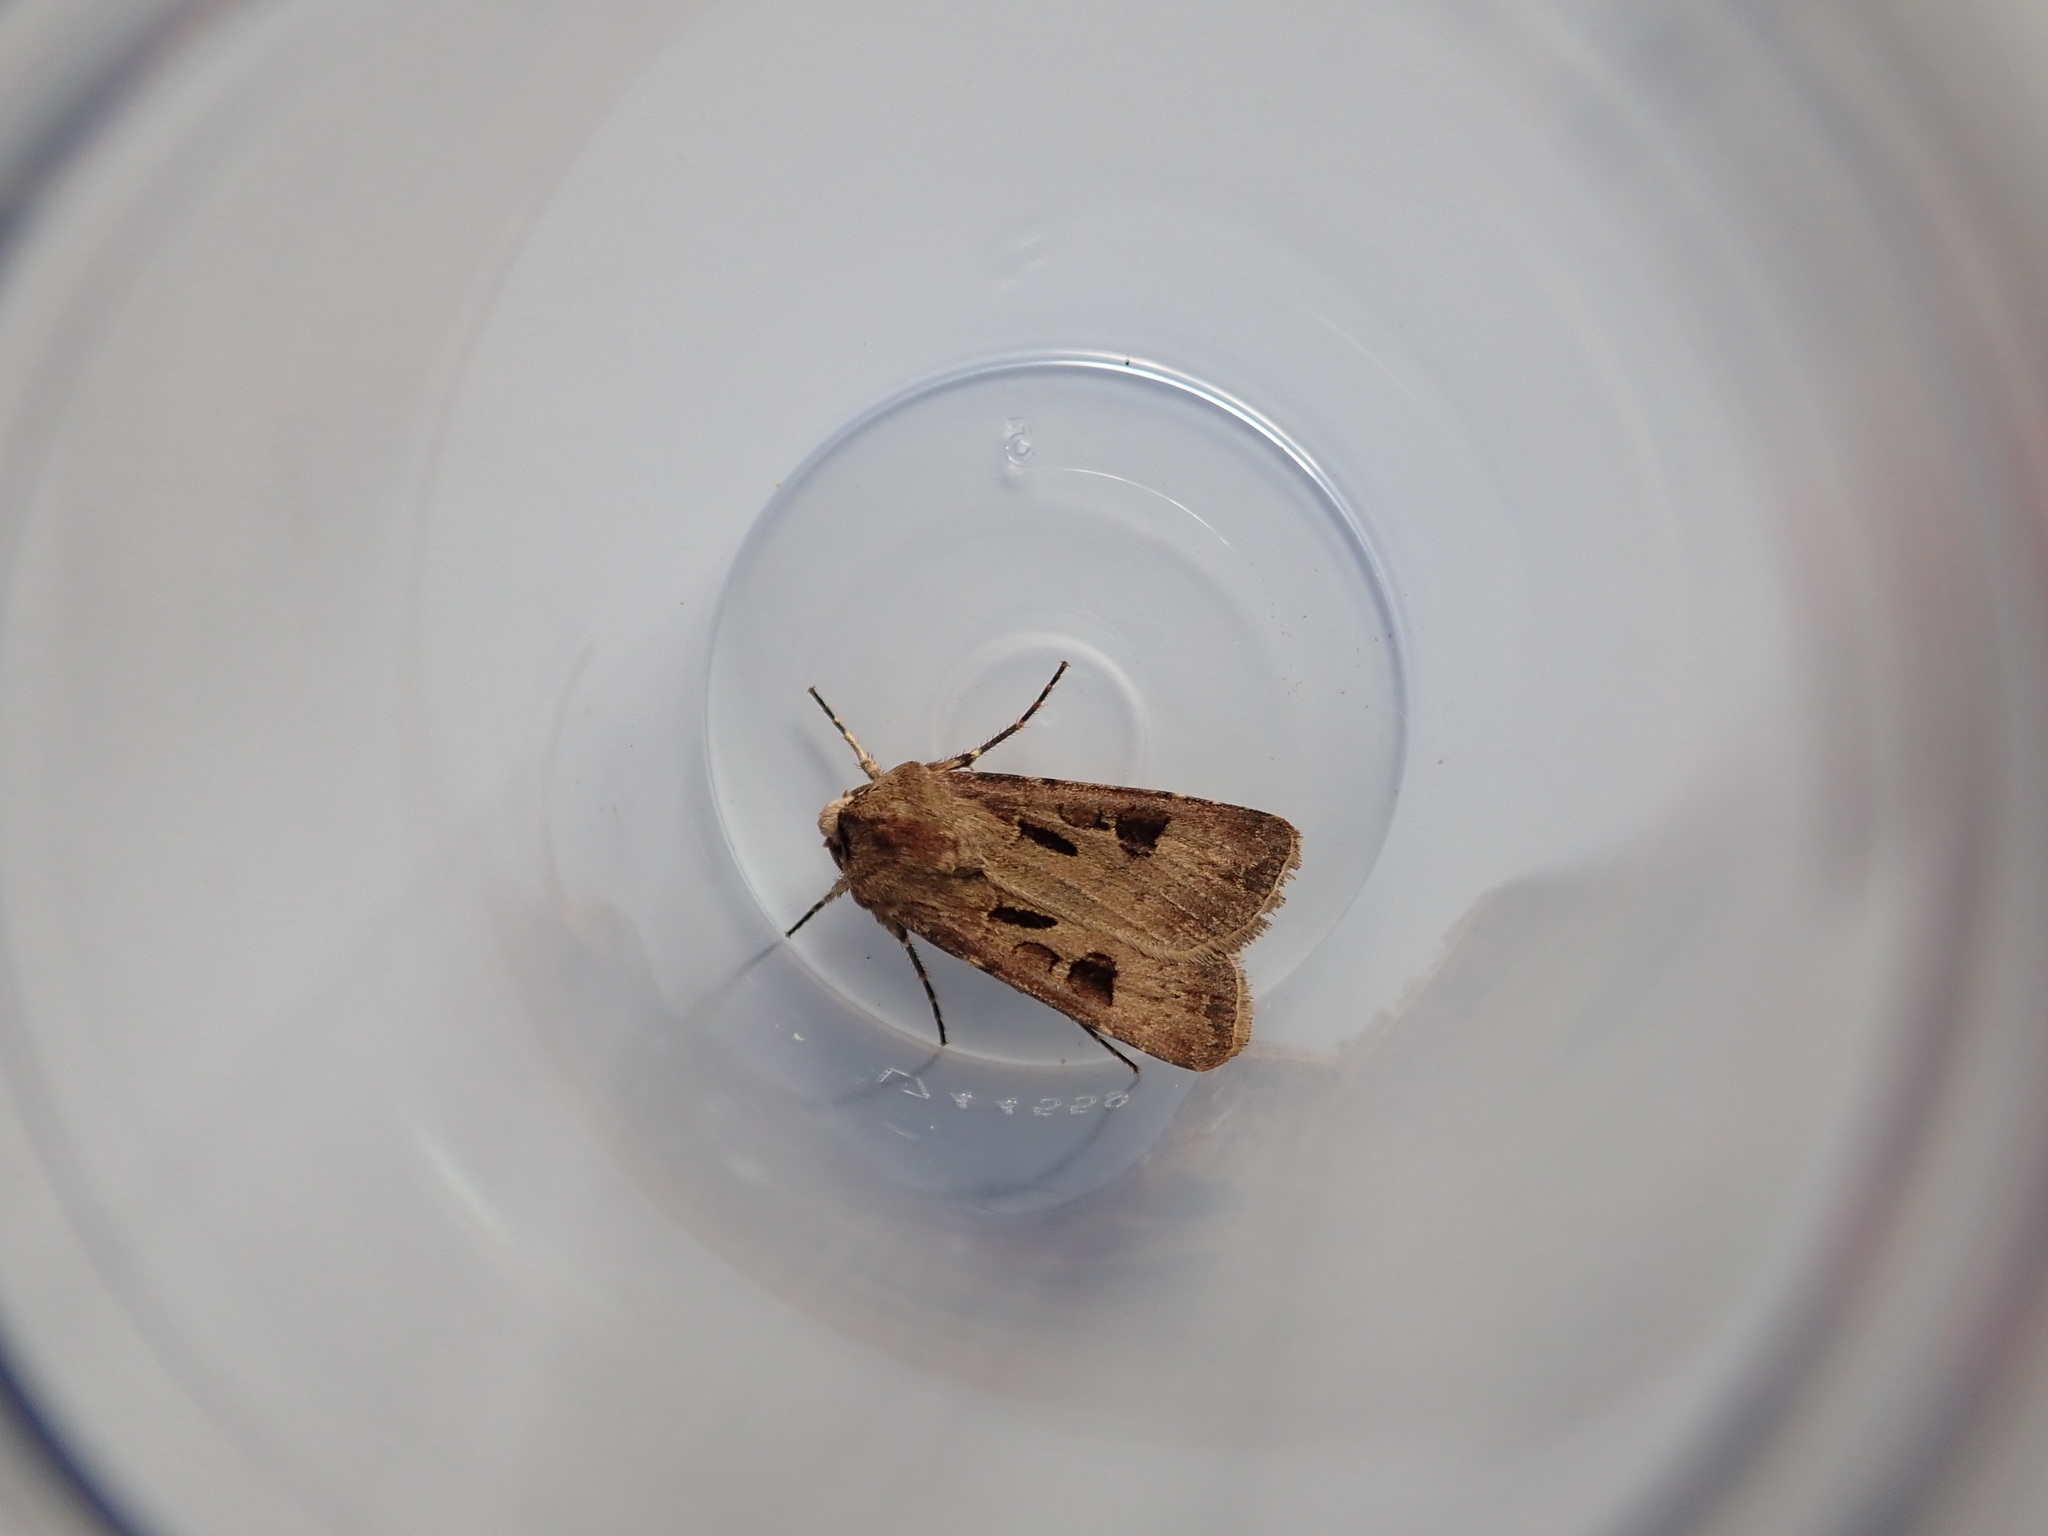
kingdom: Animalia
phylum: Arthropoda
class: Insecta
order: Lepidoptera
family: Noctuidae
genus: Agrotis
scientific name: Agrotis exclamationis
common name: Heart and dart
